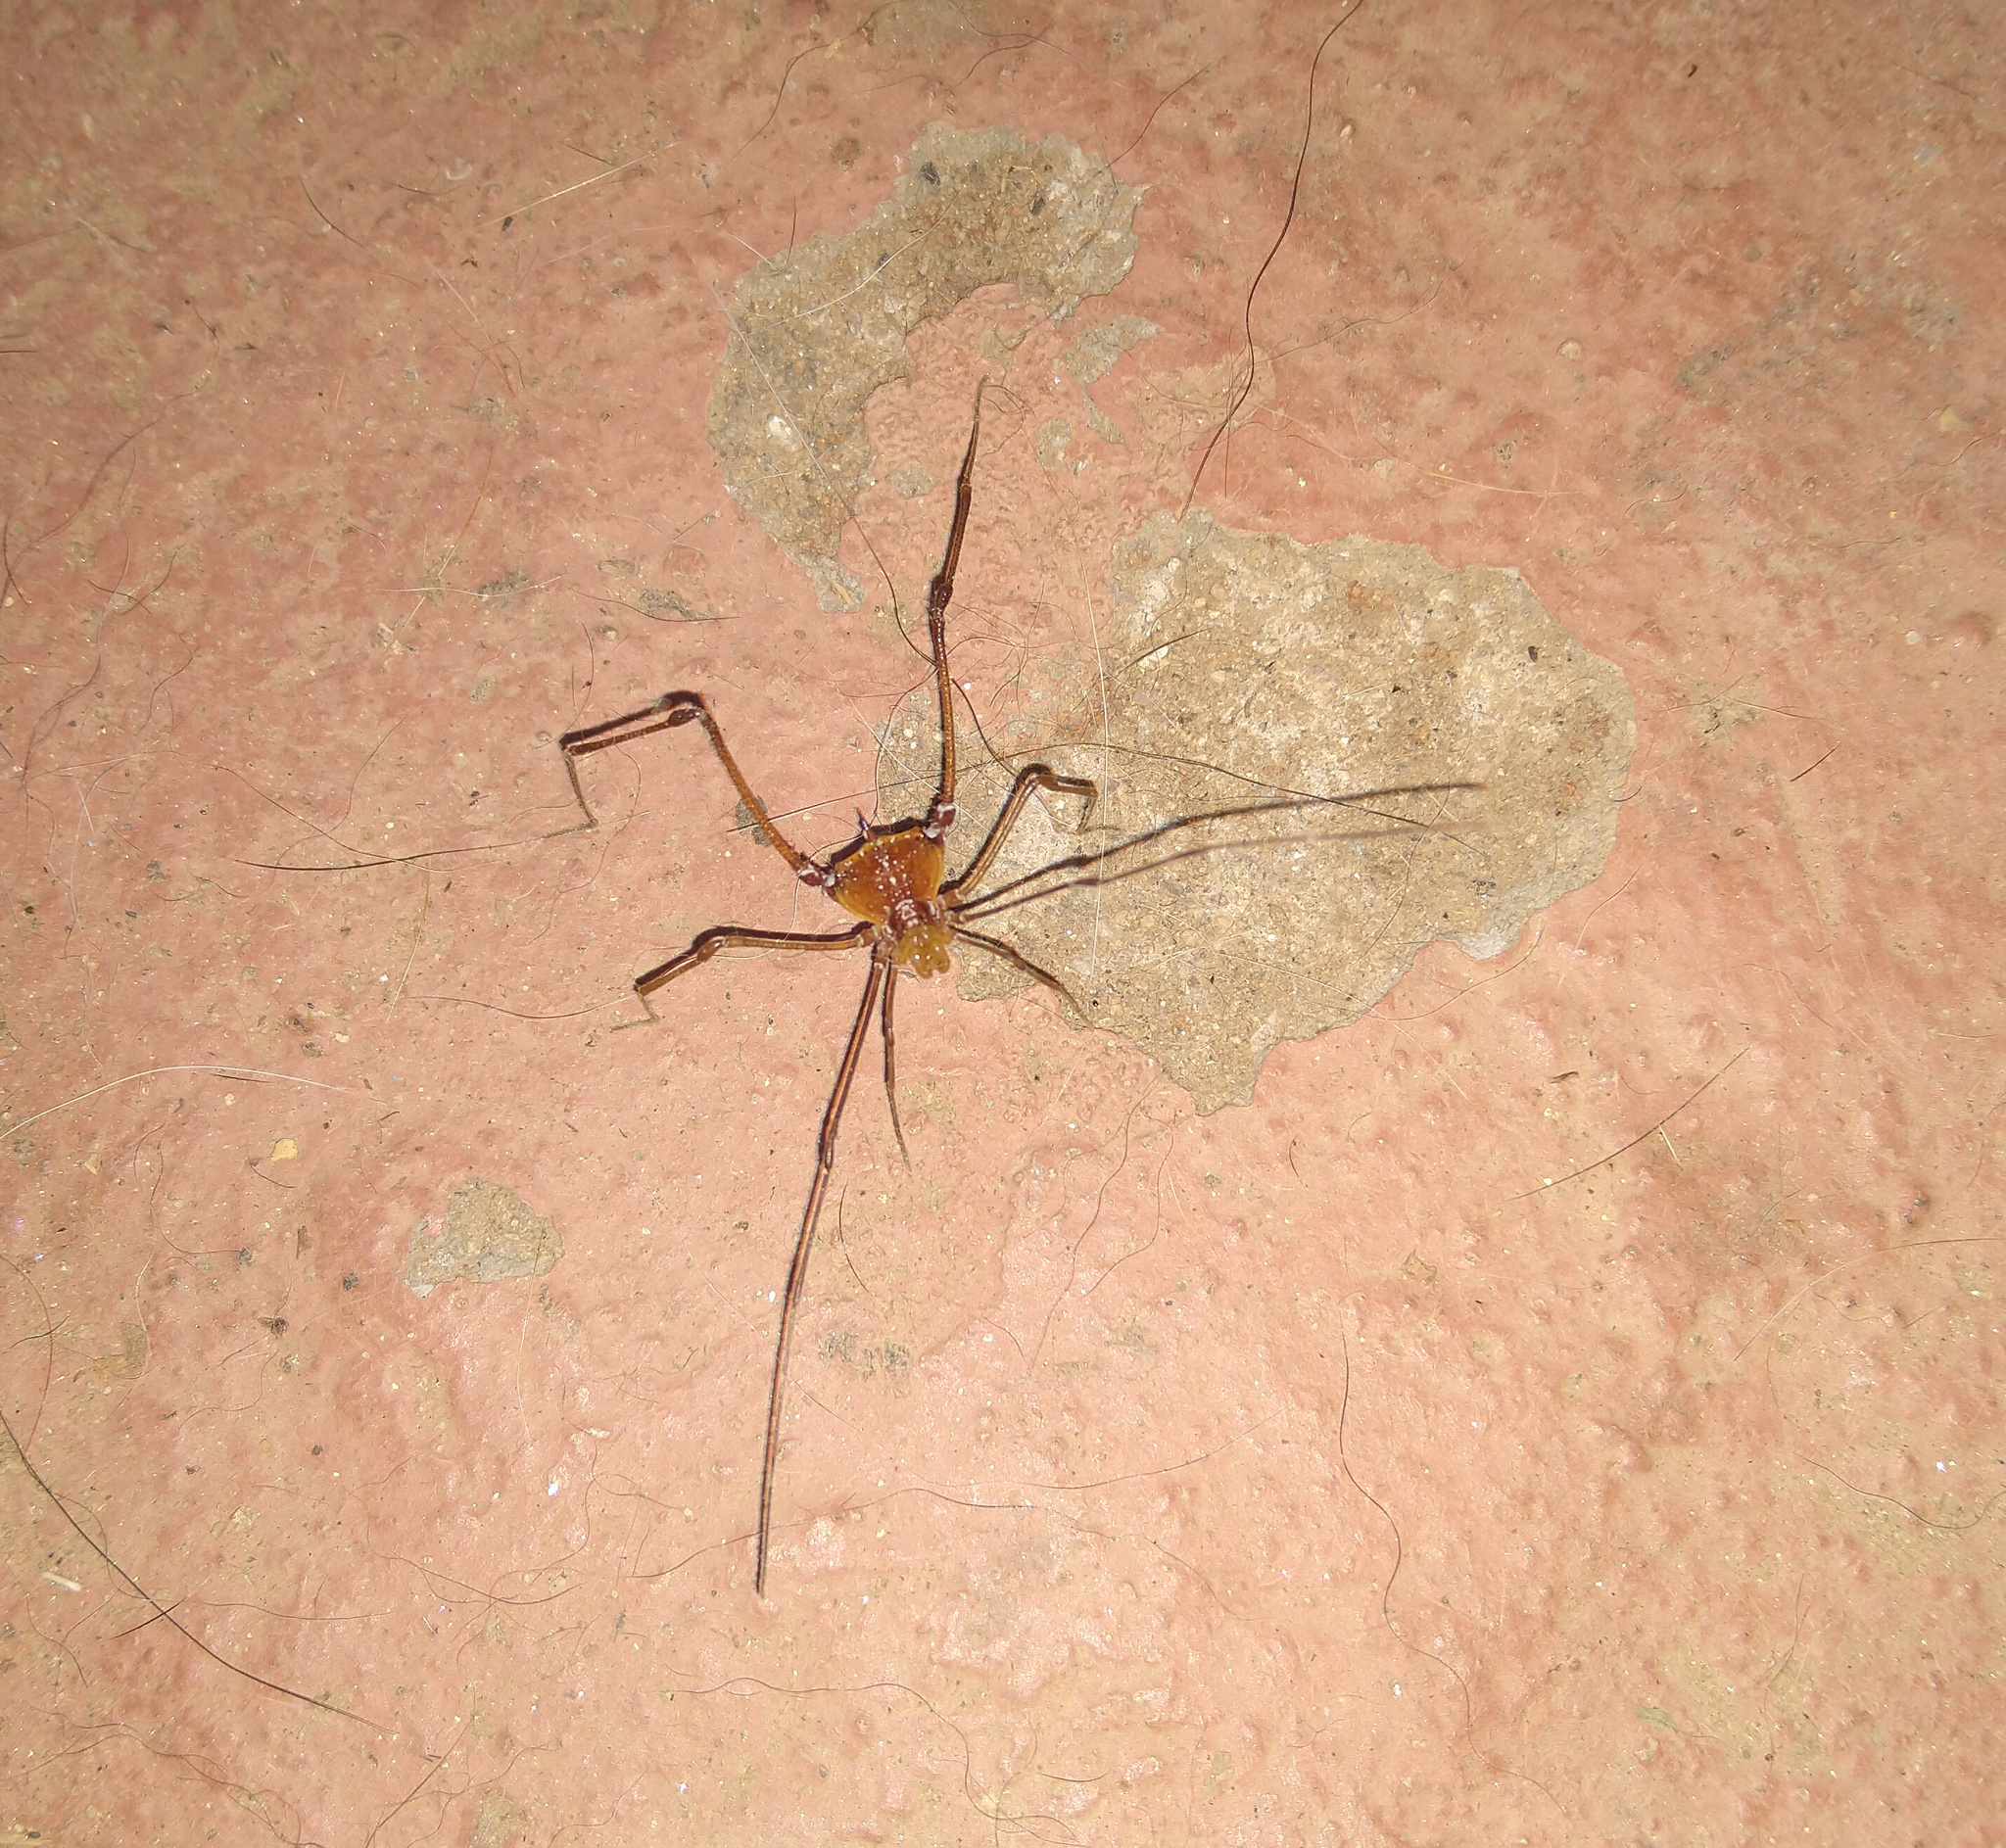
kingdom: Animalia
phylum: Arthropoda
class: Arachnida
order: Opiliones
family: Gonyleptidae
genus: Bourguyia
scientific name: Bourguyia trochanteralis
